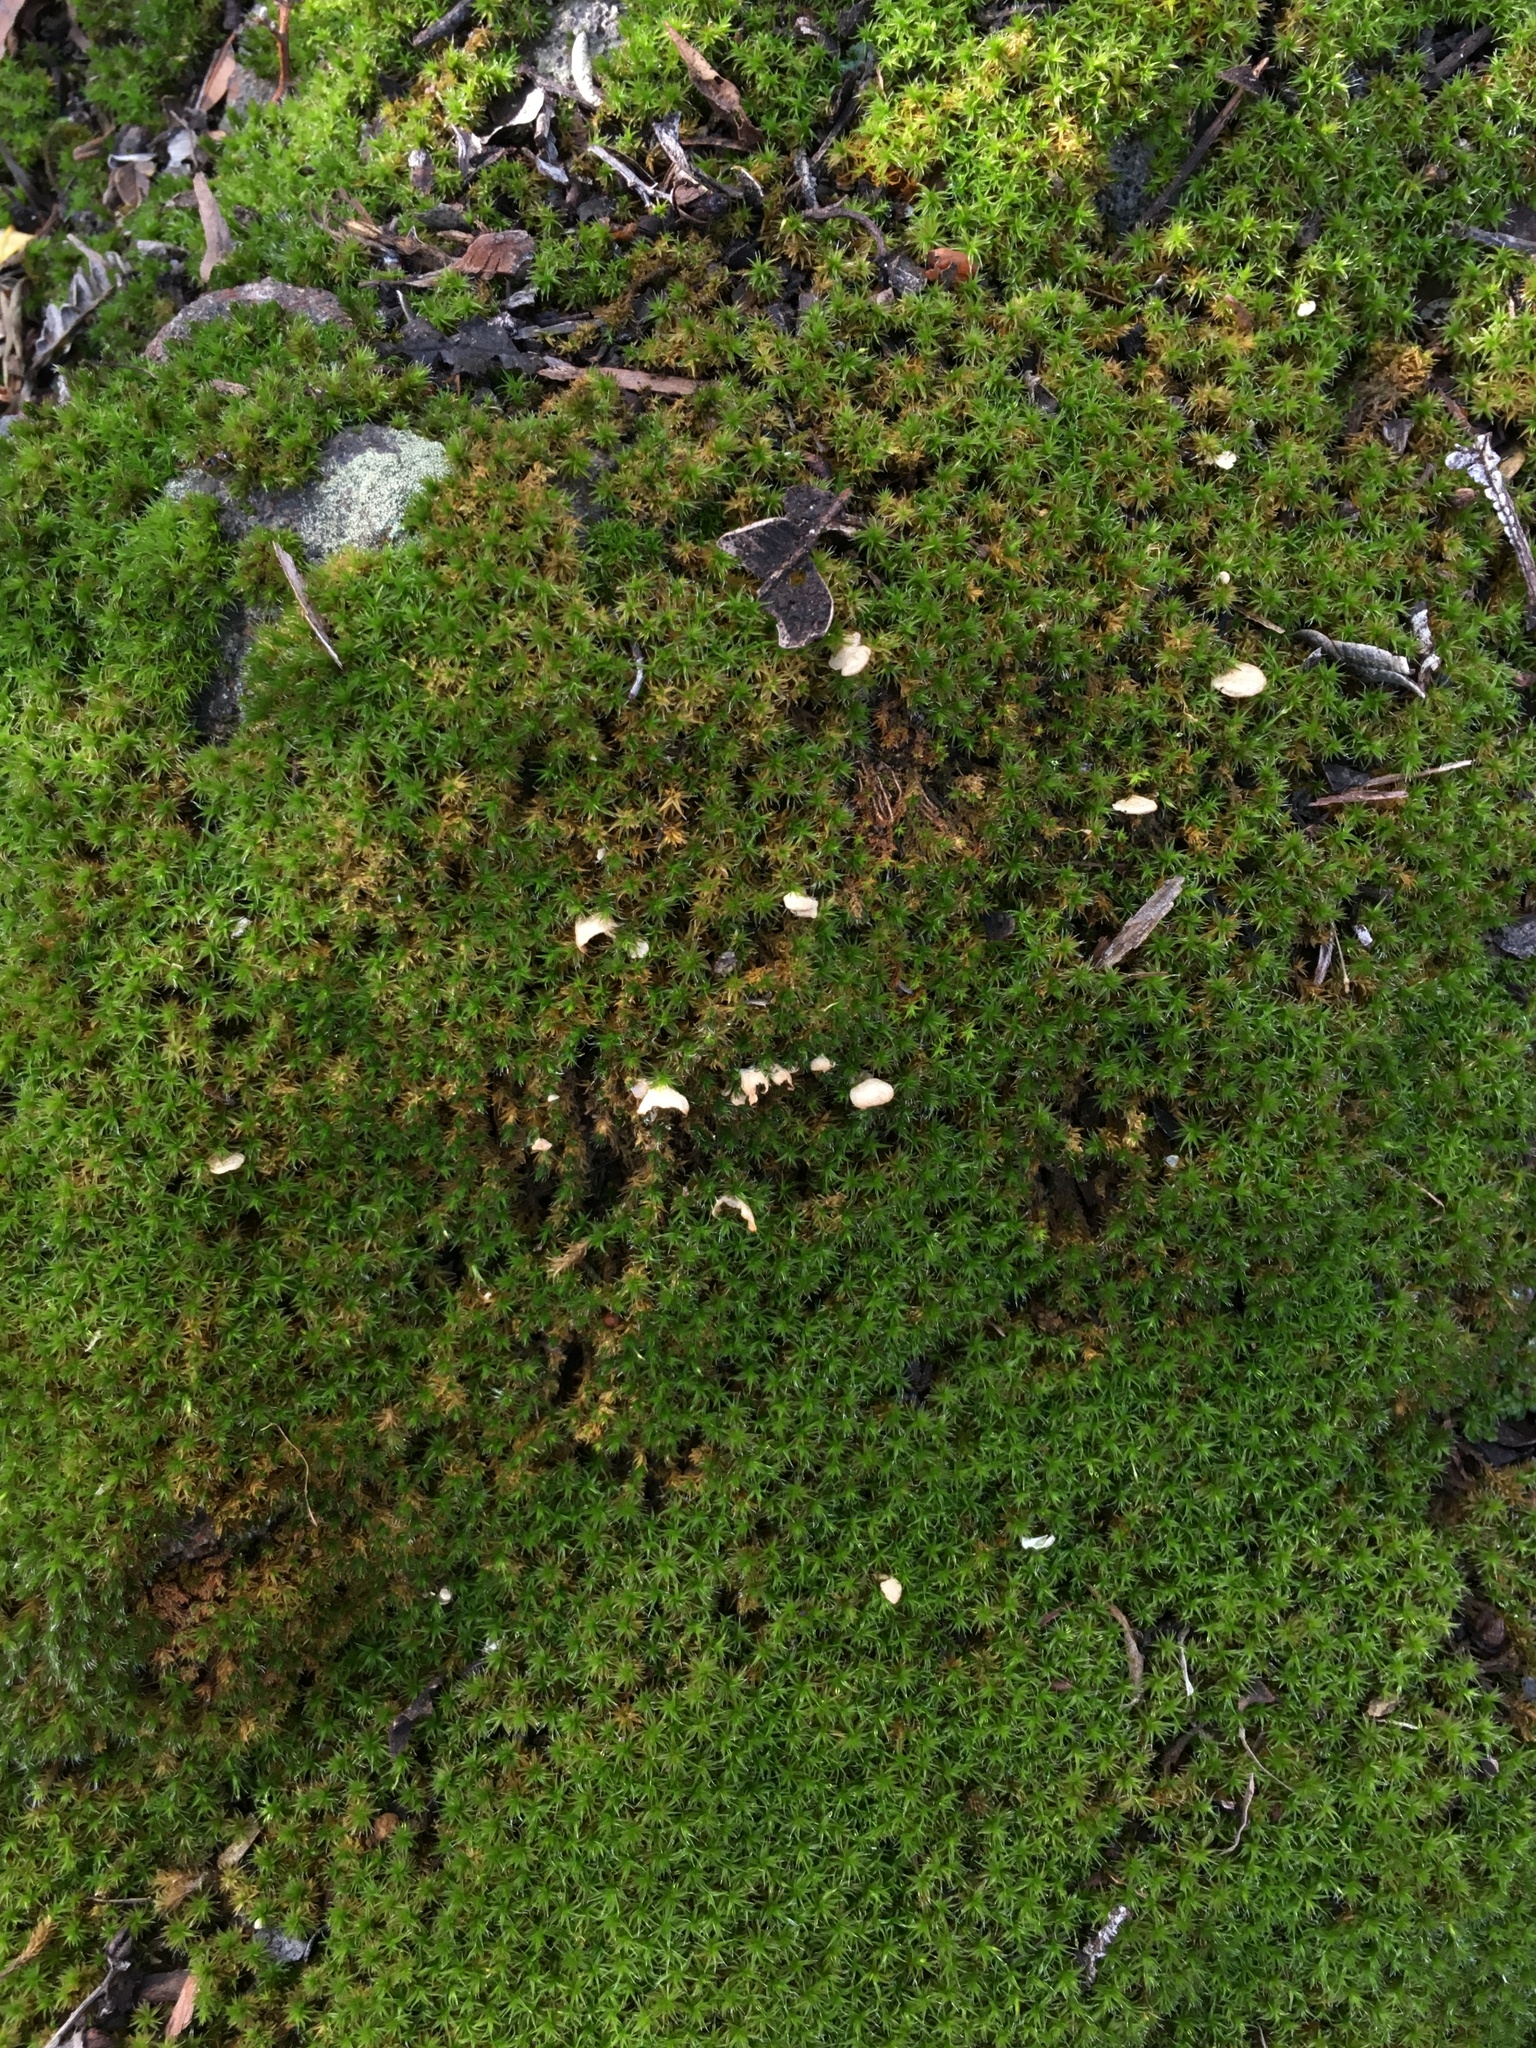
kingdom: Fungi
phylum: Basidiomycota
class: Agaricomycetes
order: Agaricales
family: Hygrophoraceae
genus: Arrhenia
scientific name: Arrhenia retiruga
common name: Small moss oysterling
